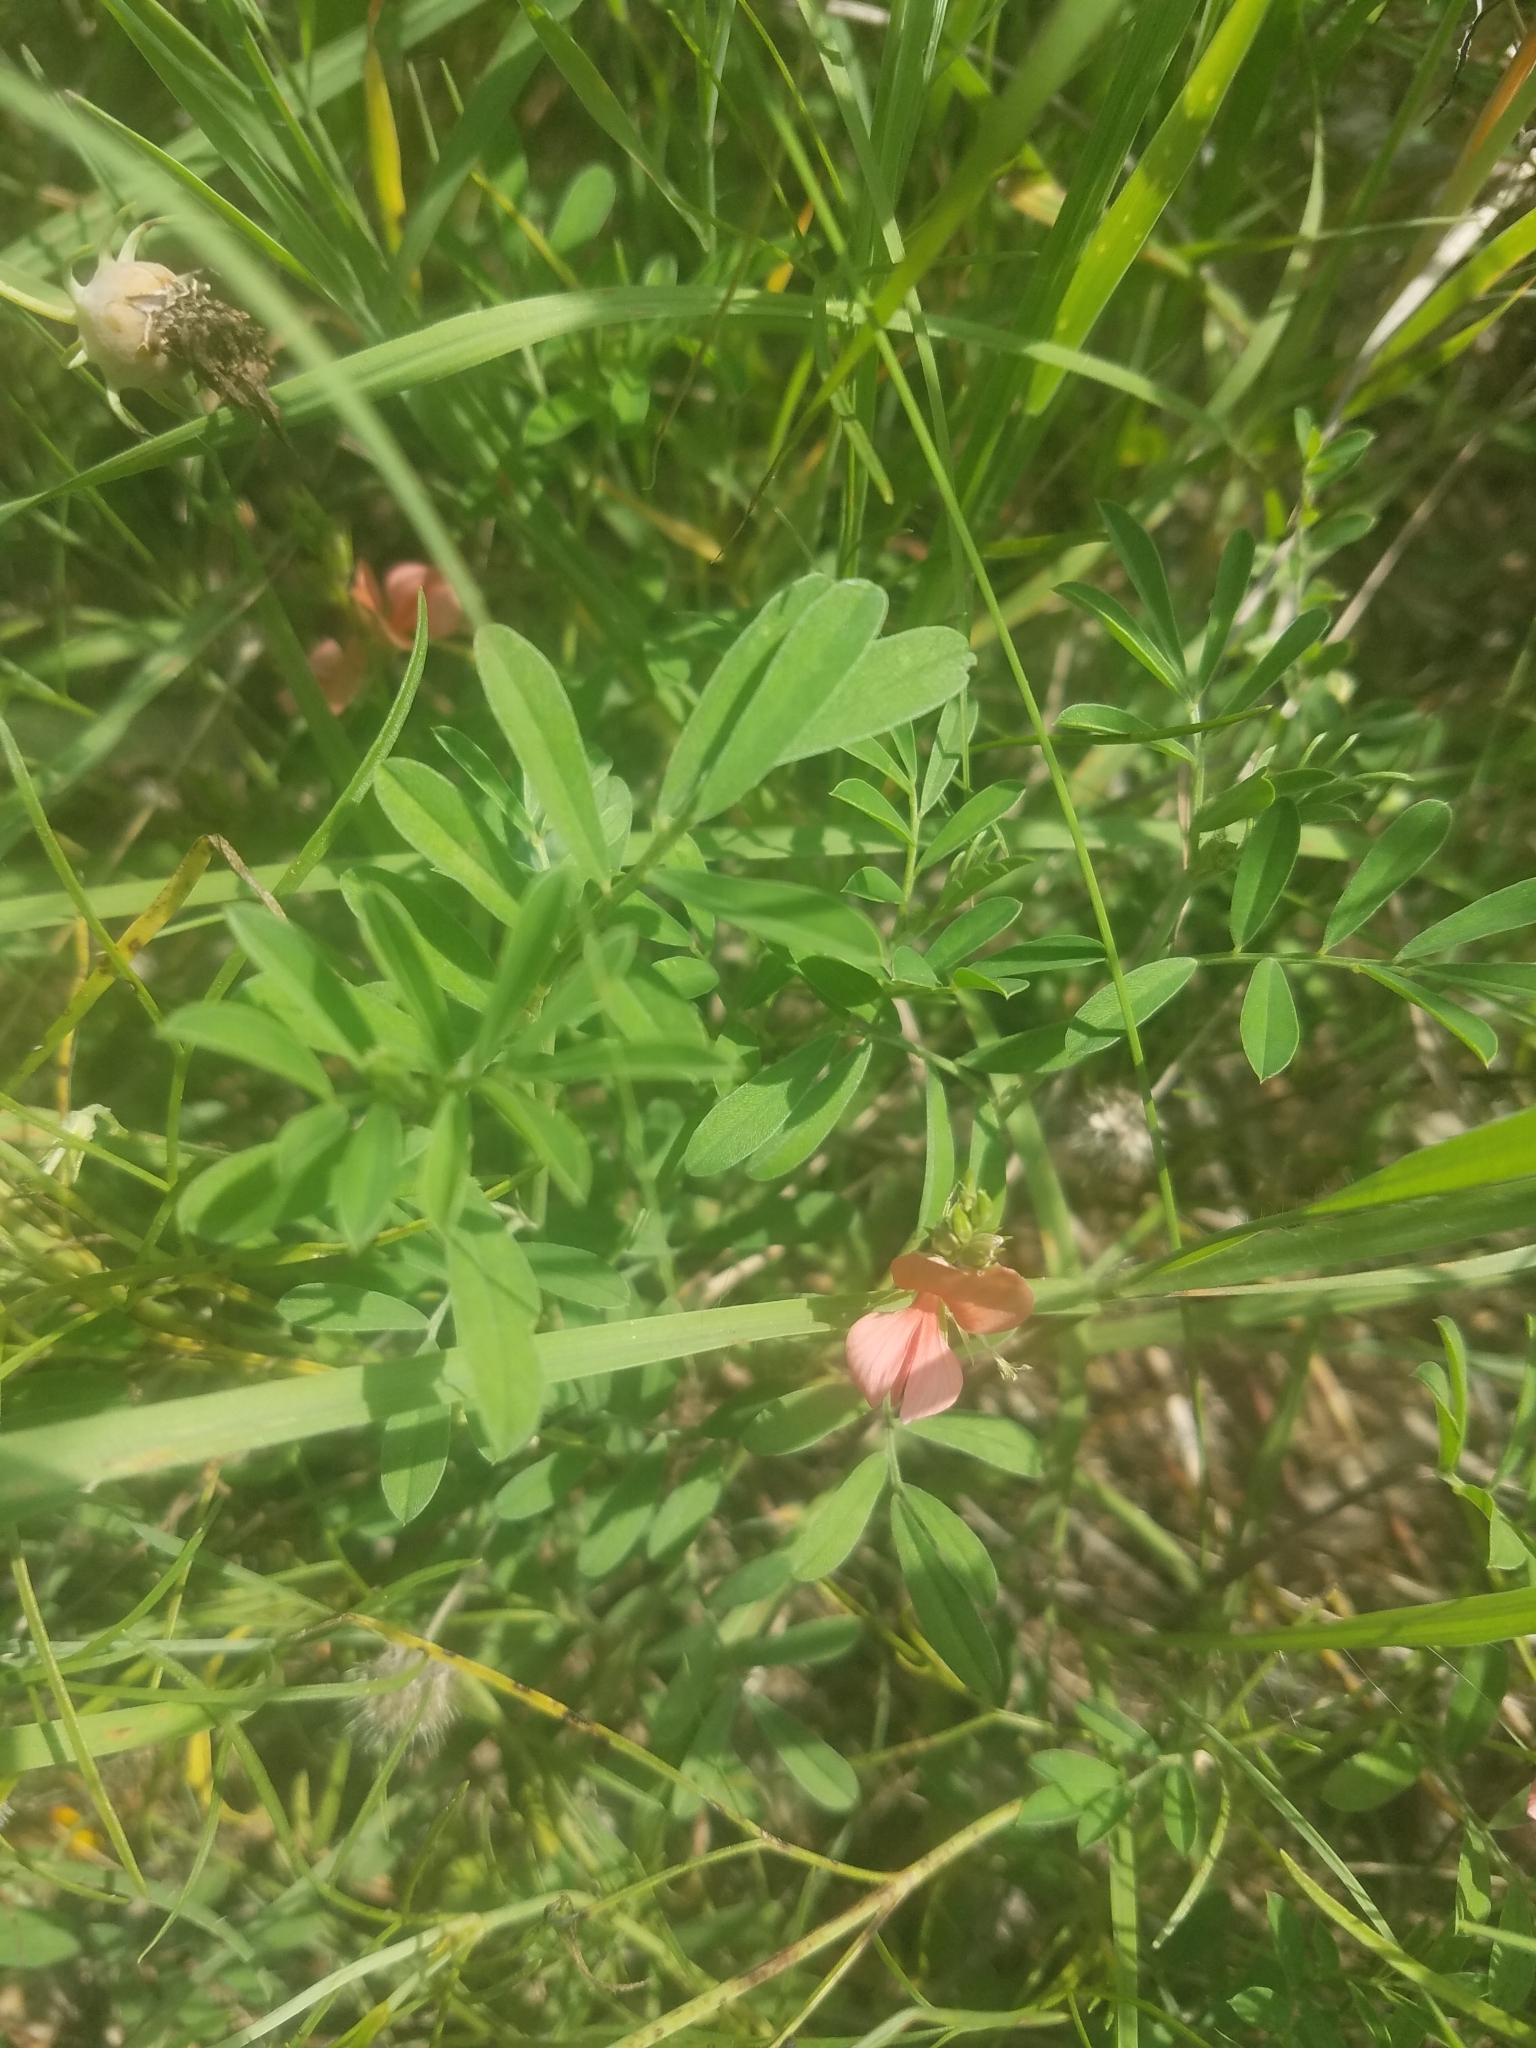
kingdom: Plantae
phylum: Tracheophyta
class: Magnoliopsida
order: Fabales
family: Fabaceae
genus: Indigofera
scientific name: Indigofera miniata
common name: Coast indigo
